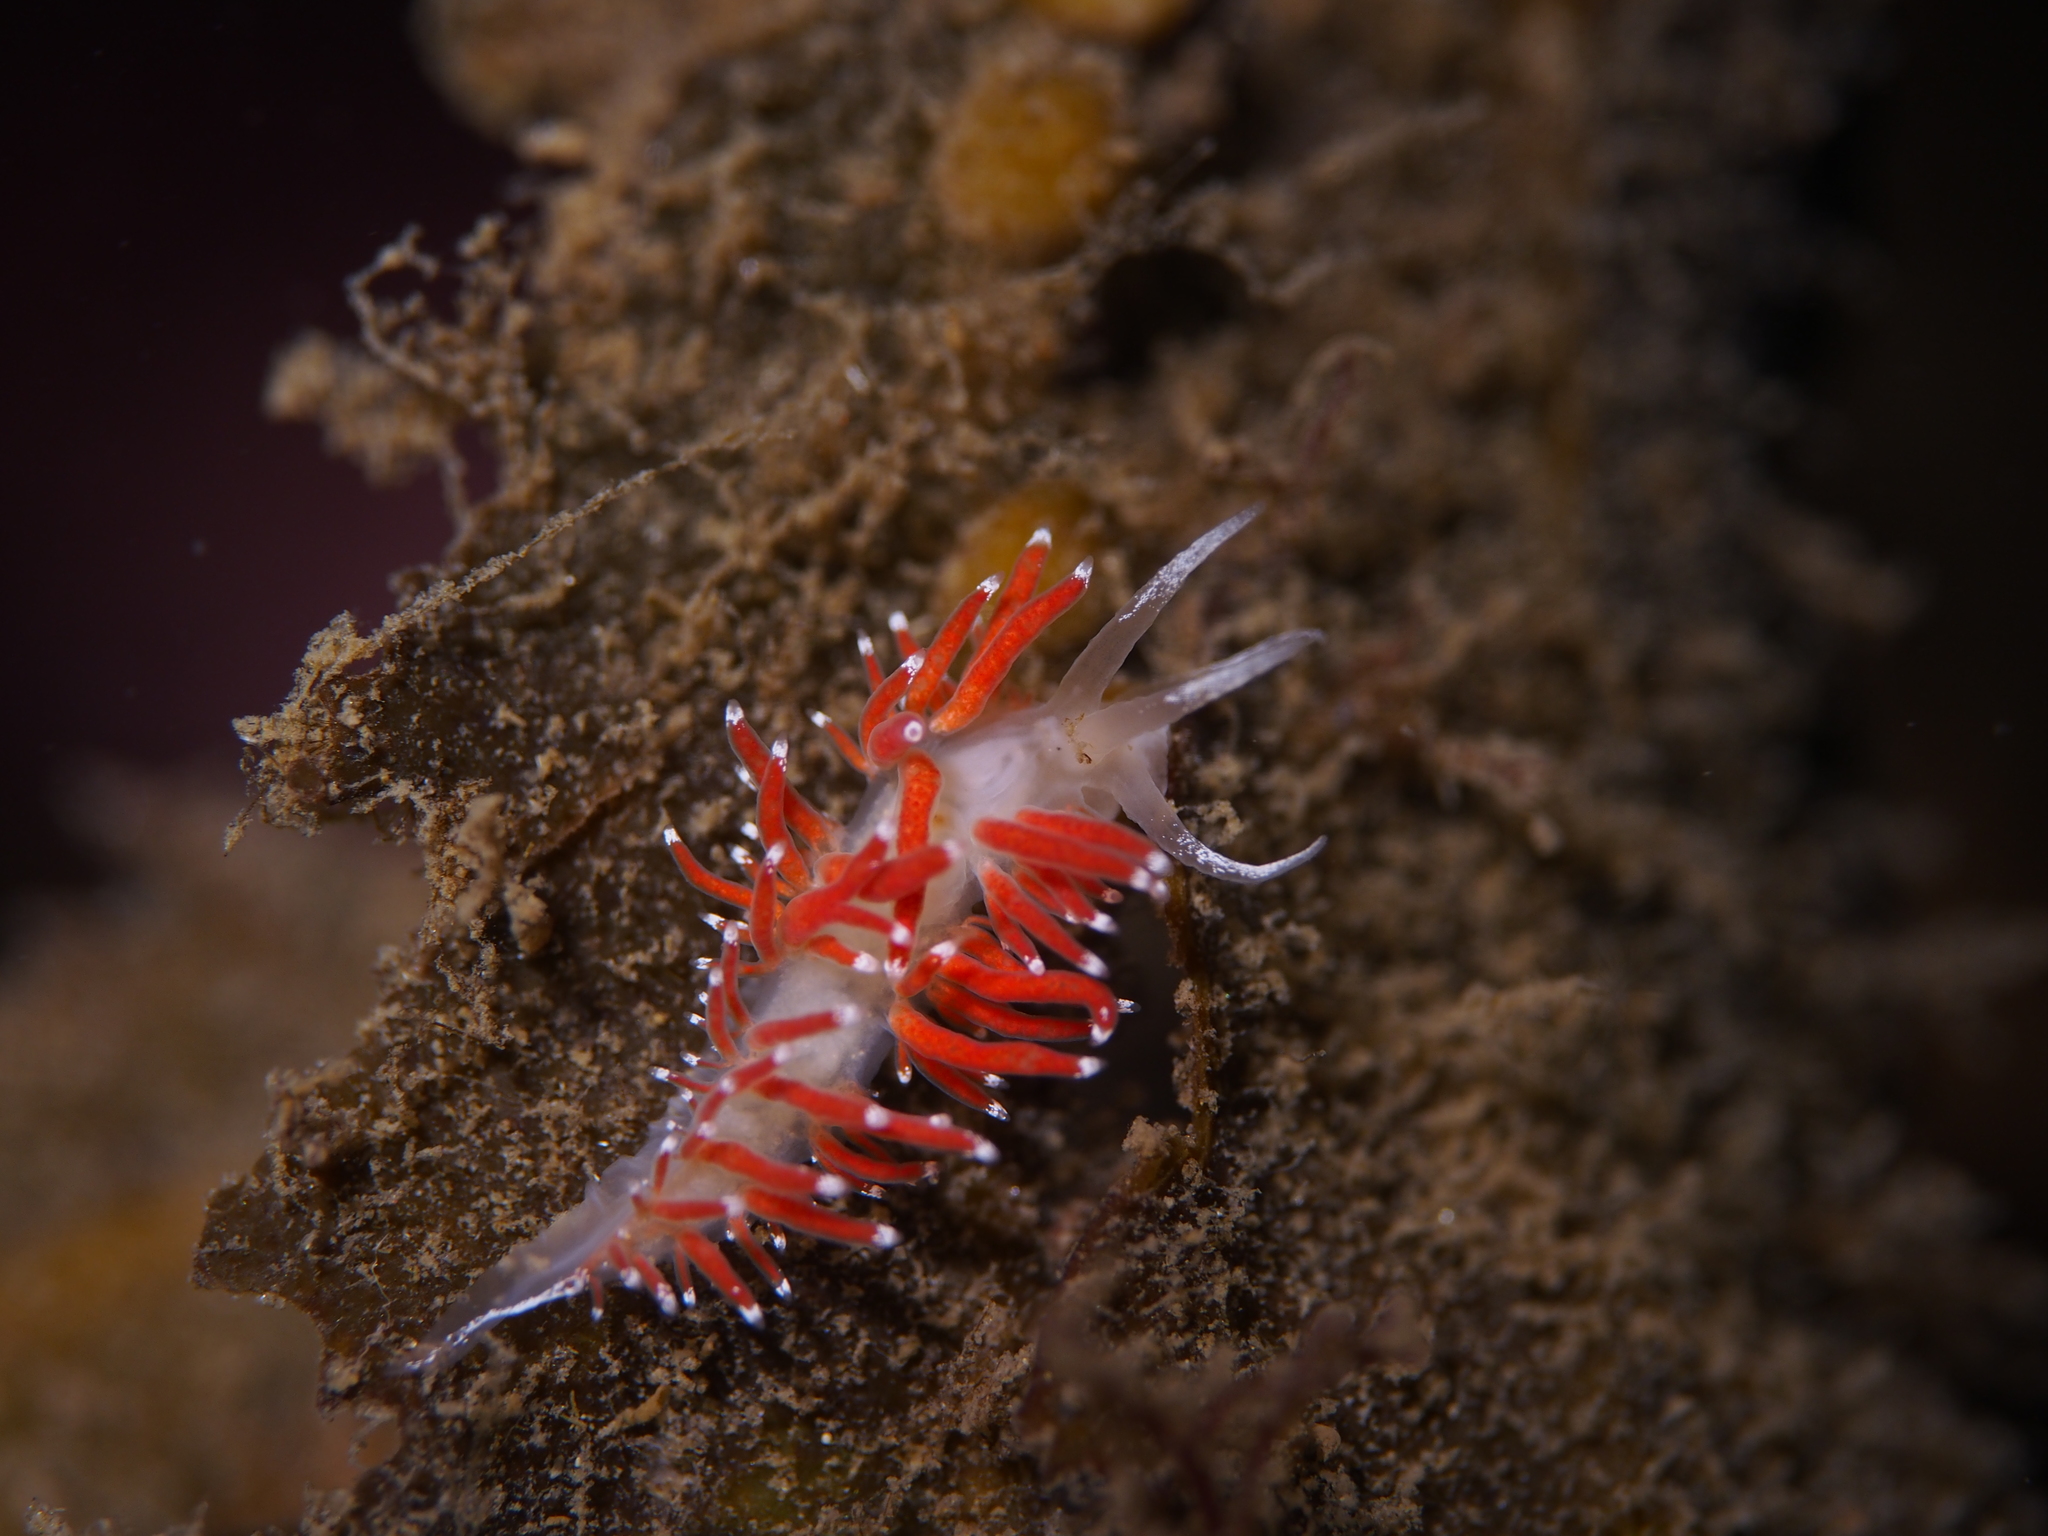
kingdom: Animalia
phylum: Mollusca
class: Gastropoda
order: Nudibranchia
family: Coryphellidae
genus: Coryphella
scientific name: Coryphella gracilis
